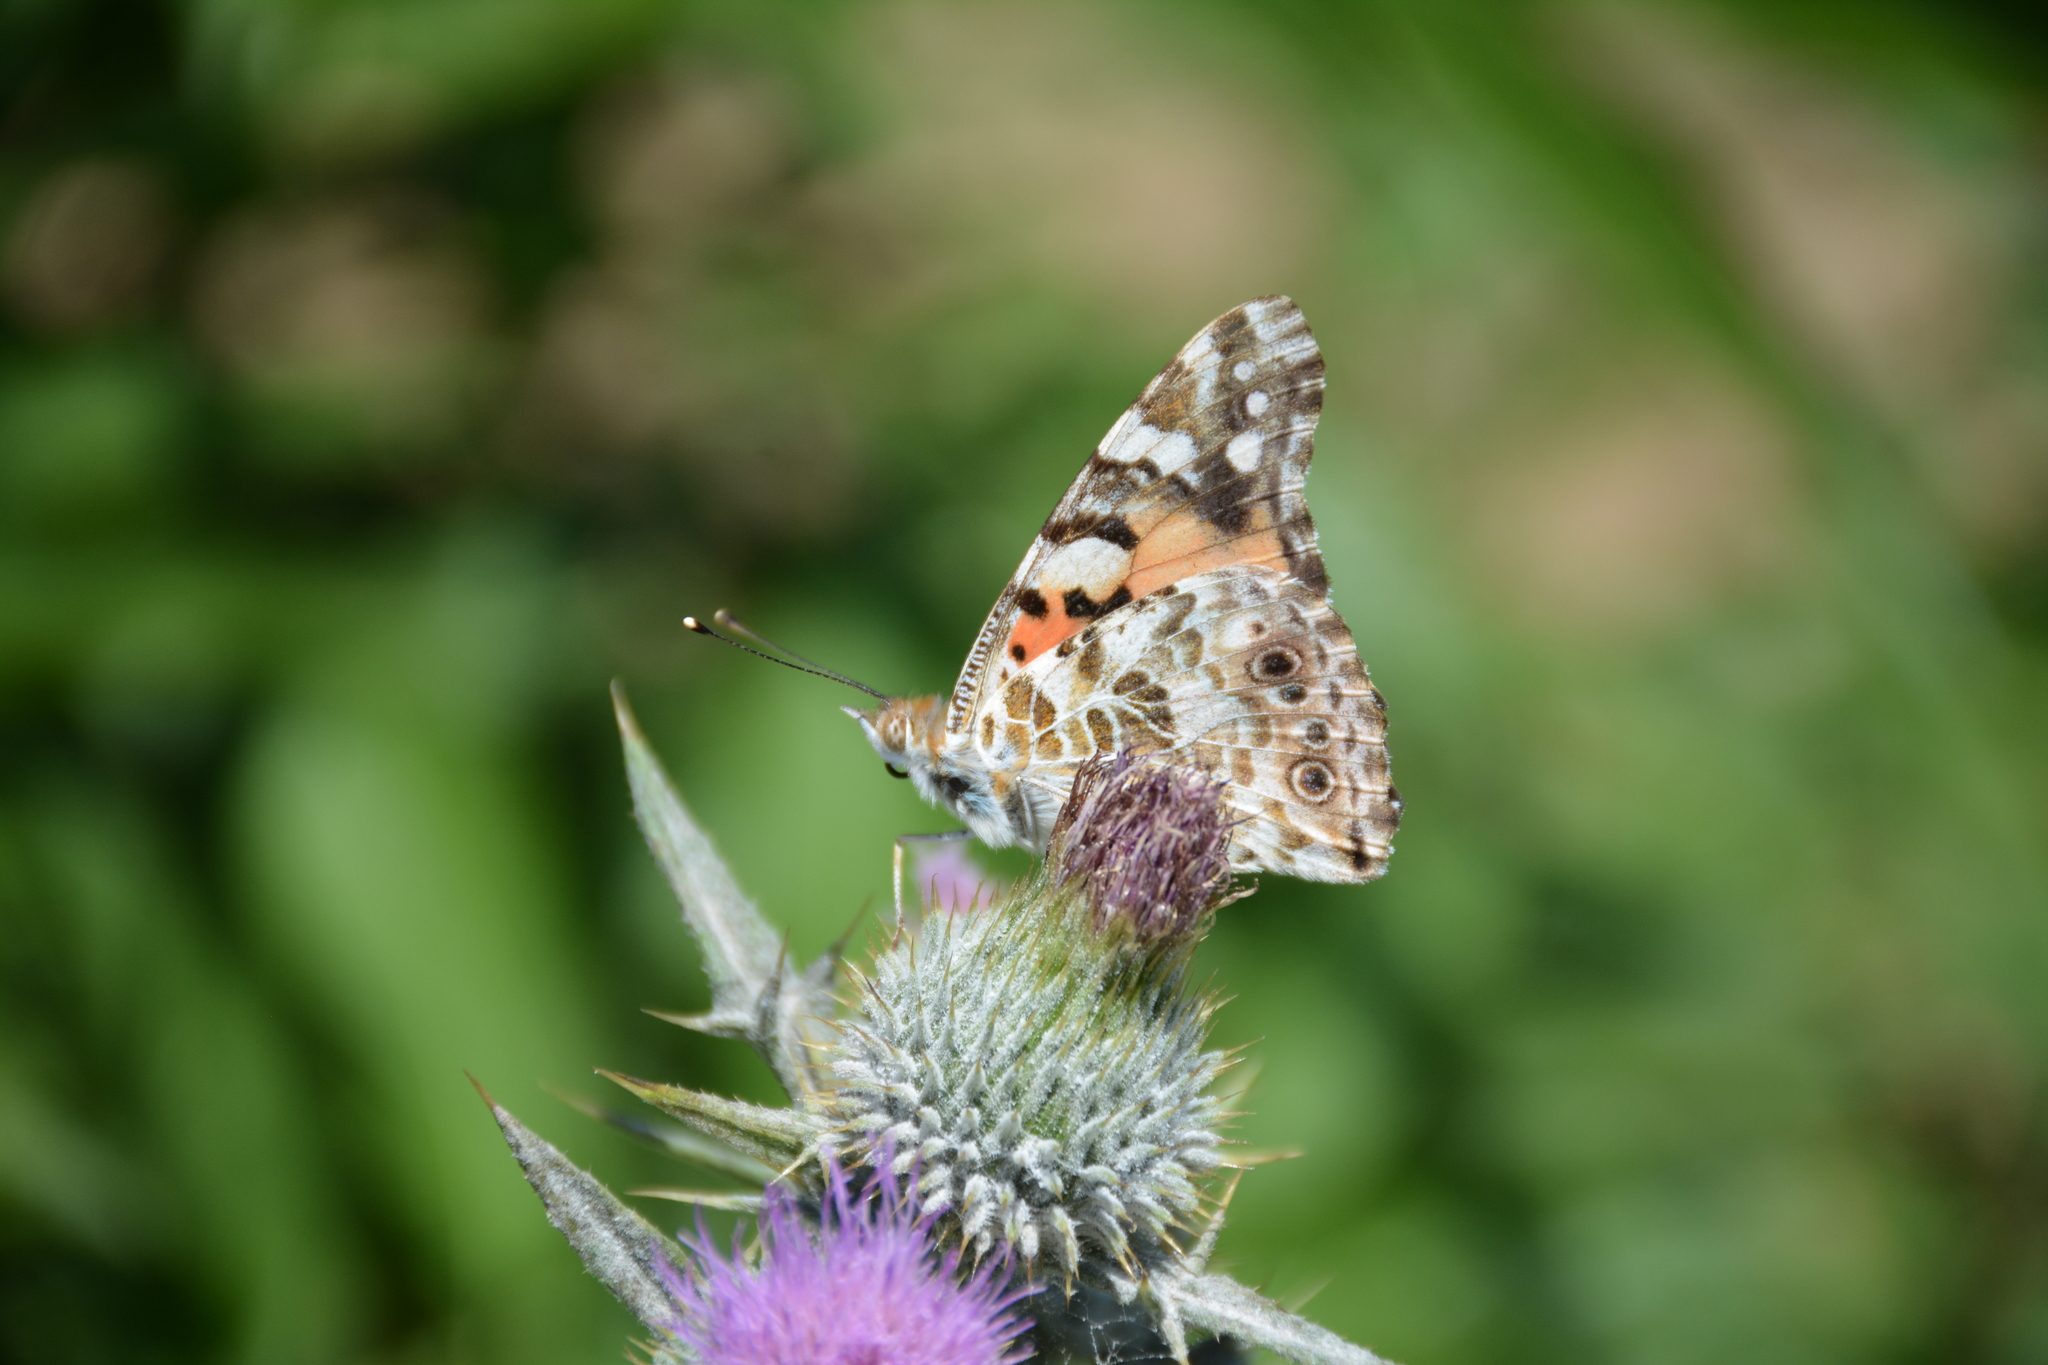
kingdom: Animalia
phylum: Arthropoda
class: Insecta
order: Lepidoptera
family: Nymphalidae
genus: Vanessa
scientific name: Vanessa cardui
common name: Painted lady
